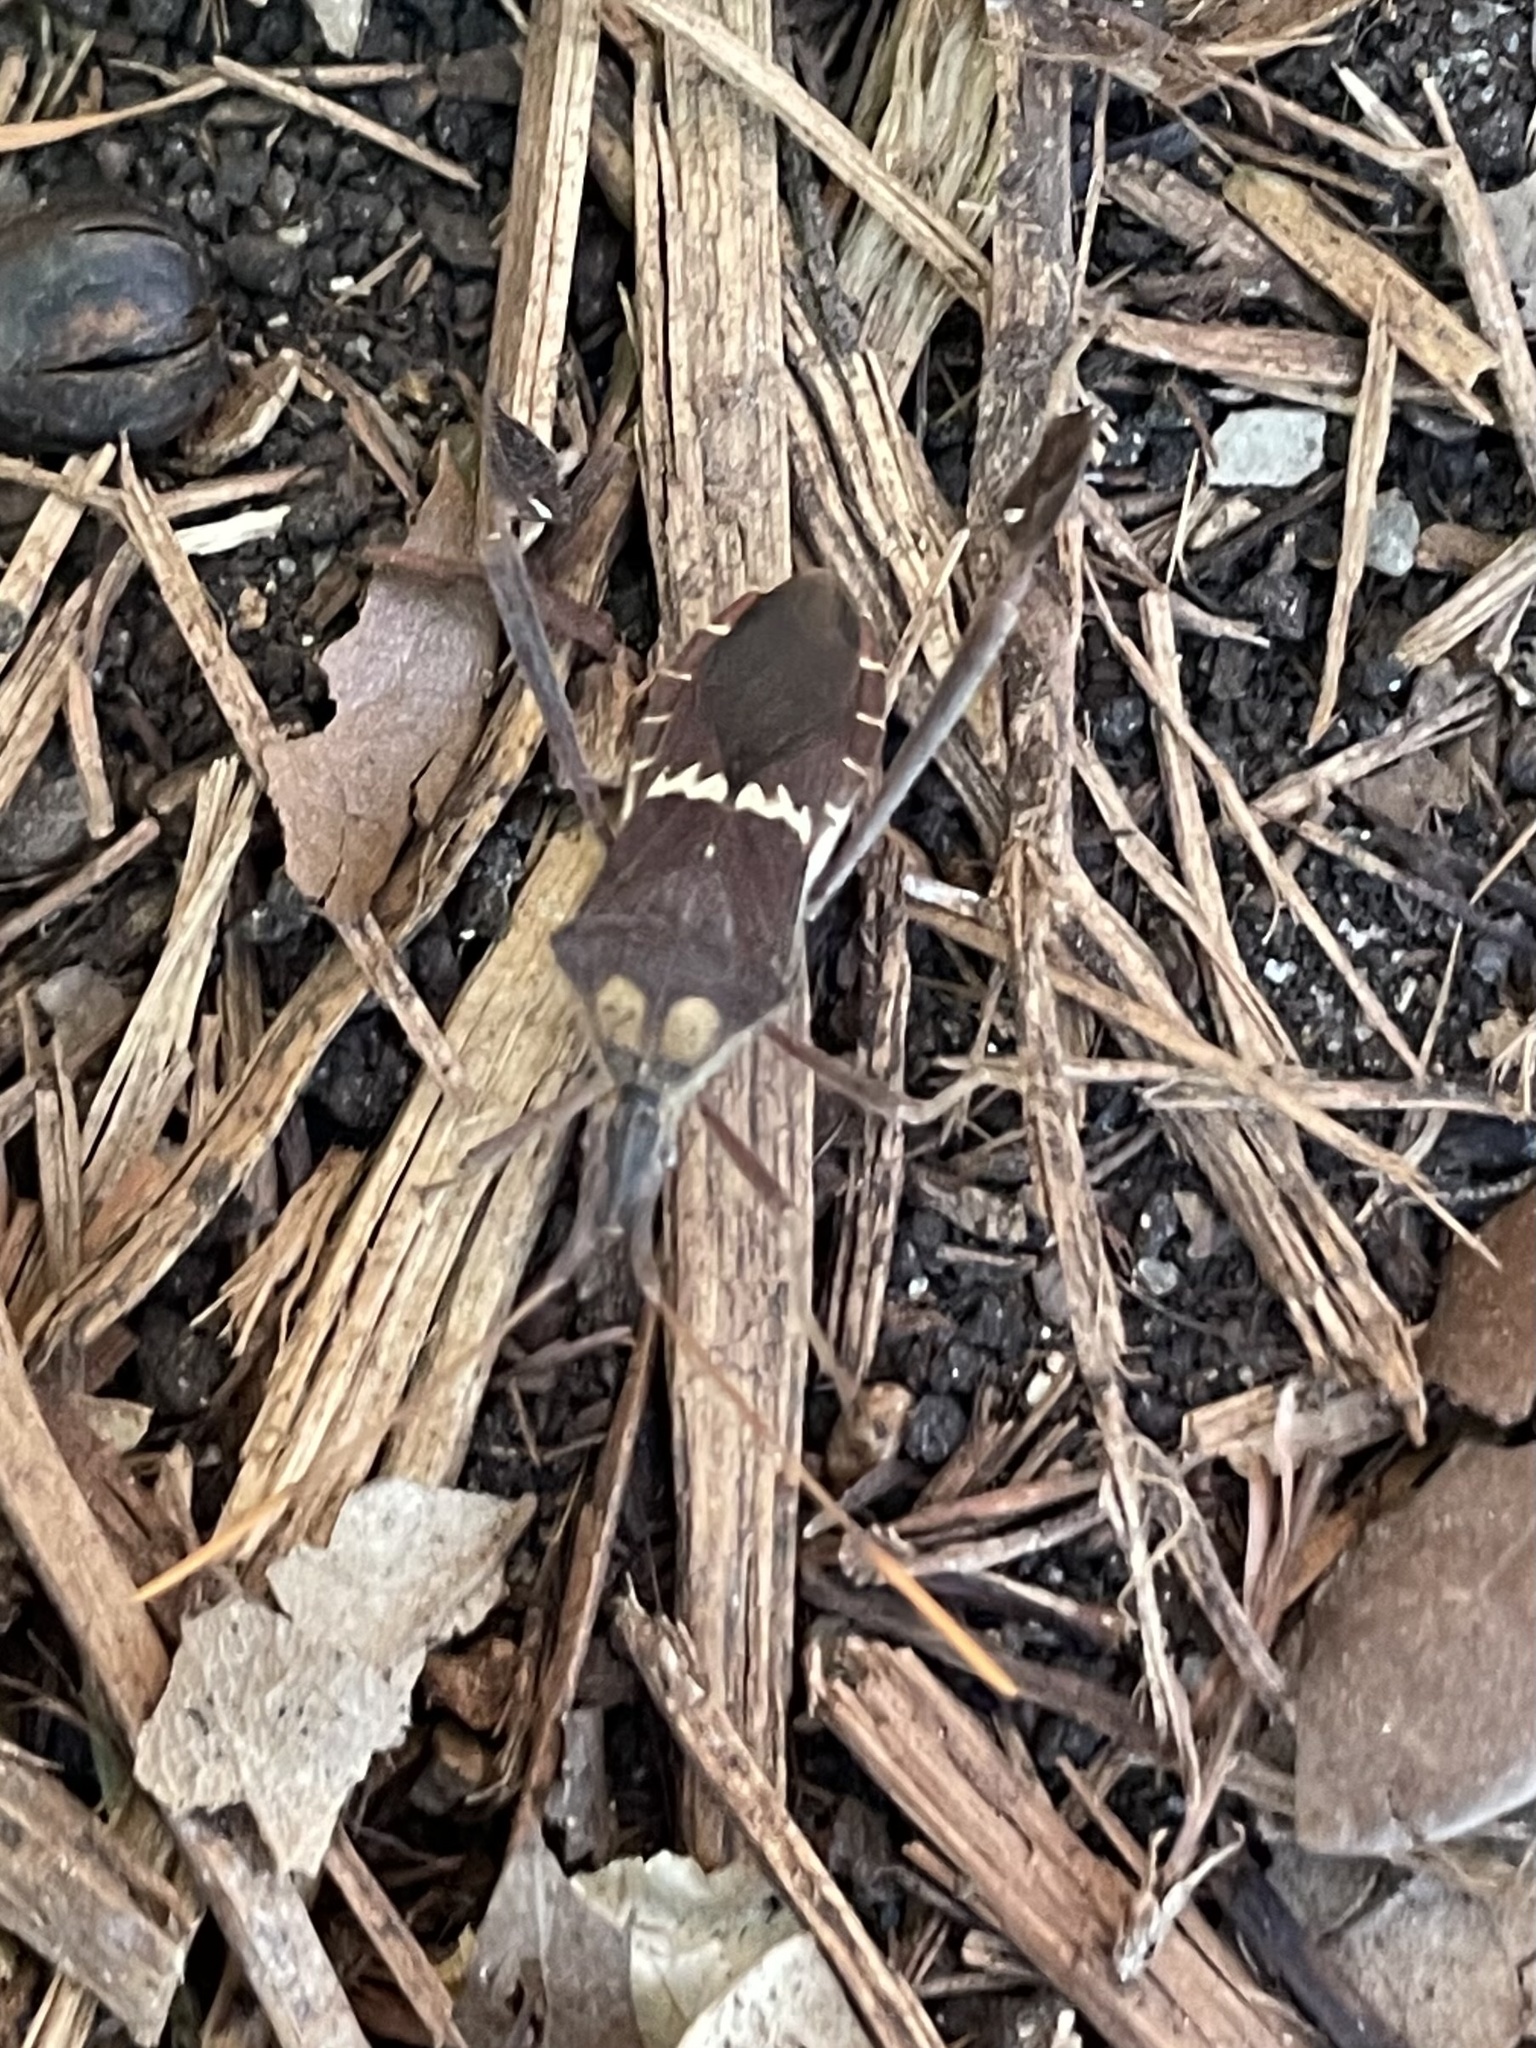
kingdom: Animalia
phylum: Arthropoda
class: Insecta
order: Hemiptera
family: Coreidae
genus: Leptoglossus
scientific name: Leptoglossus zonatus
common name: Large-legged bug
